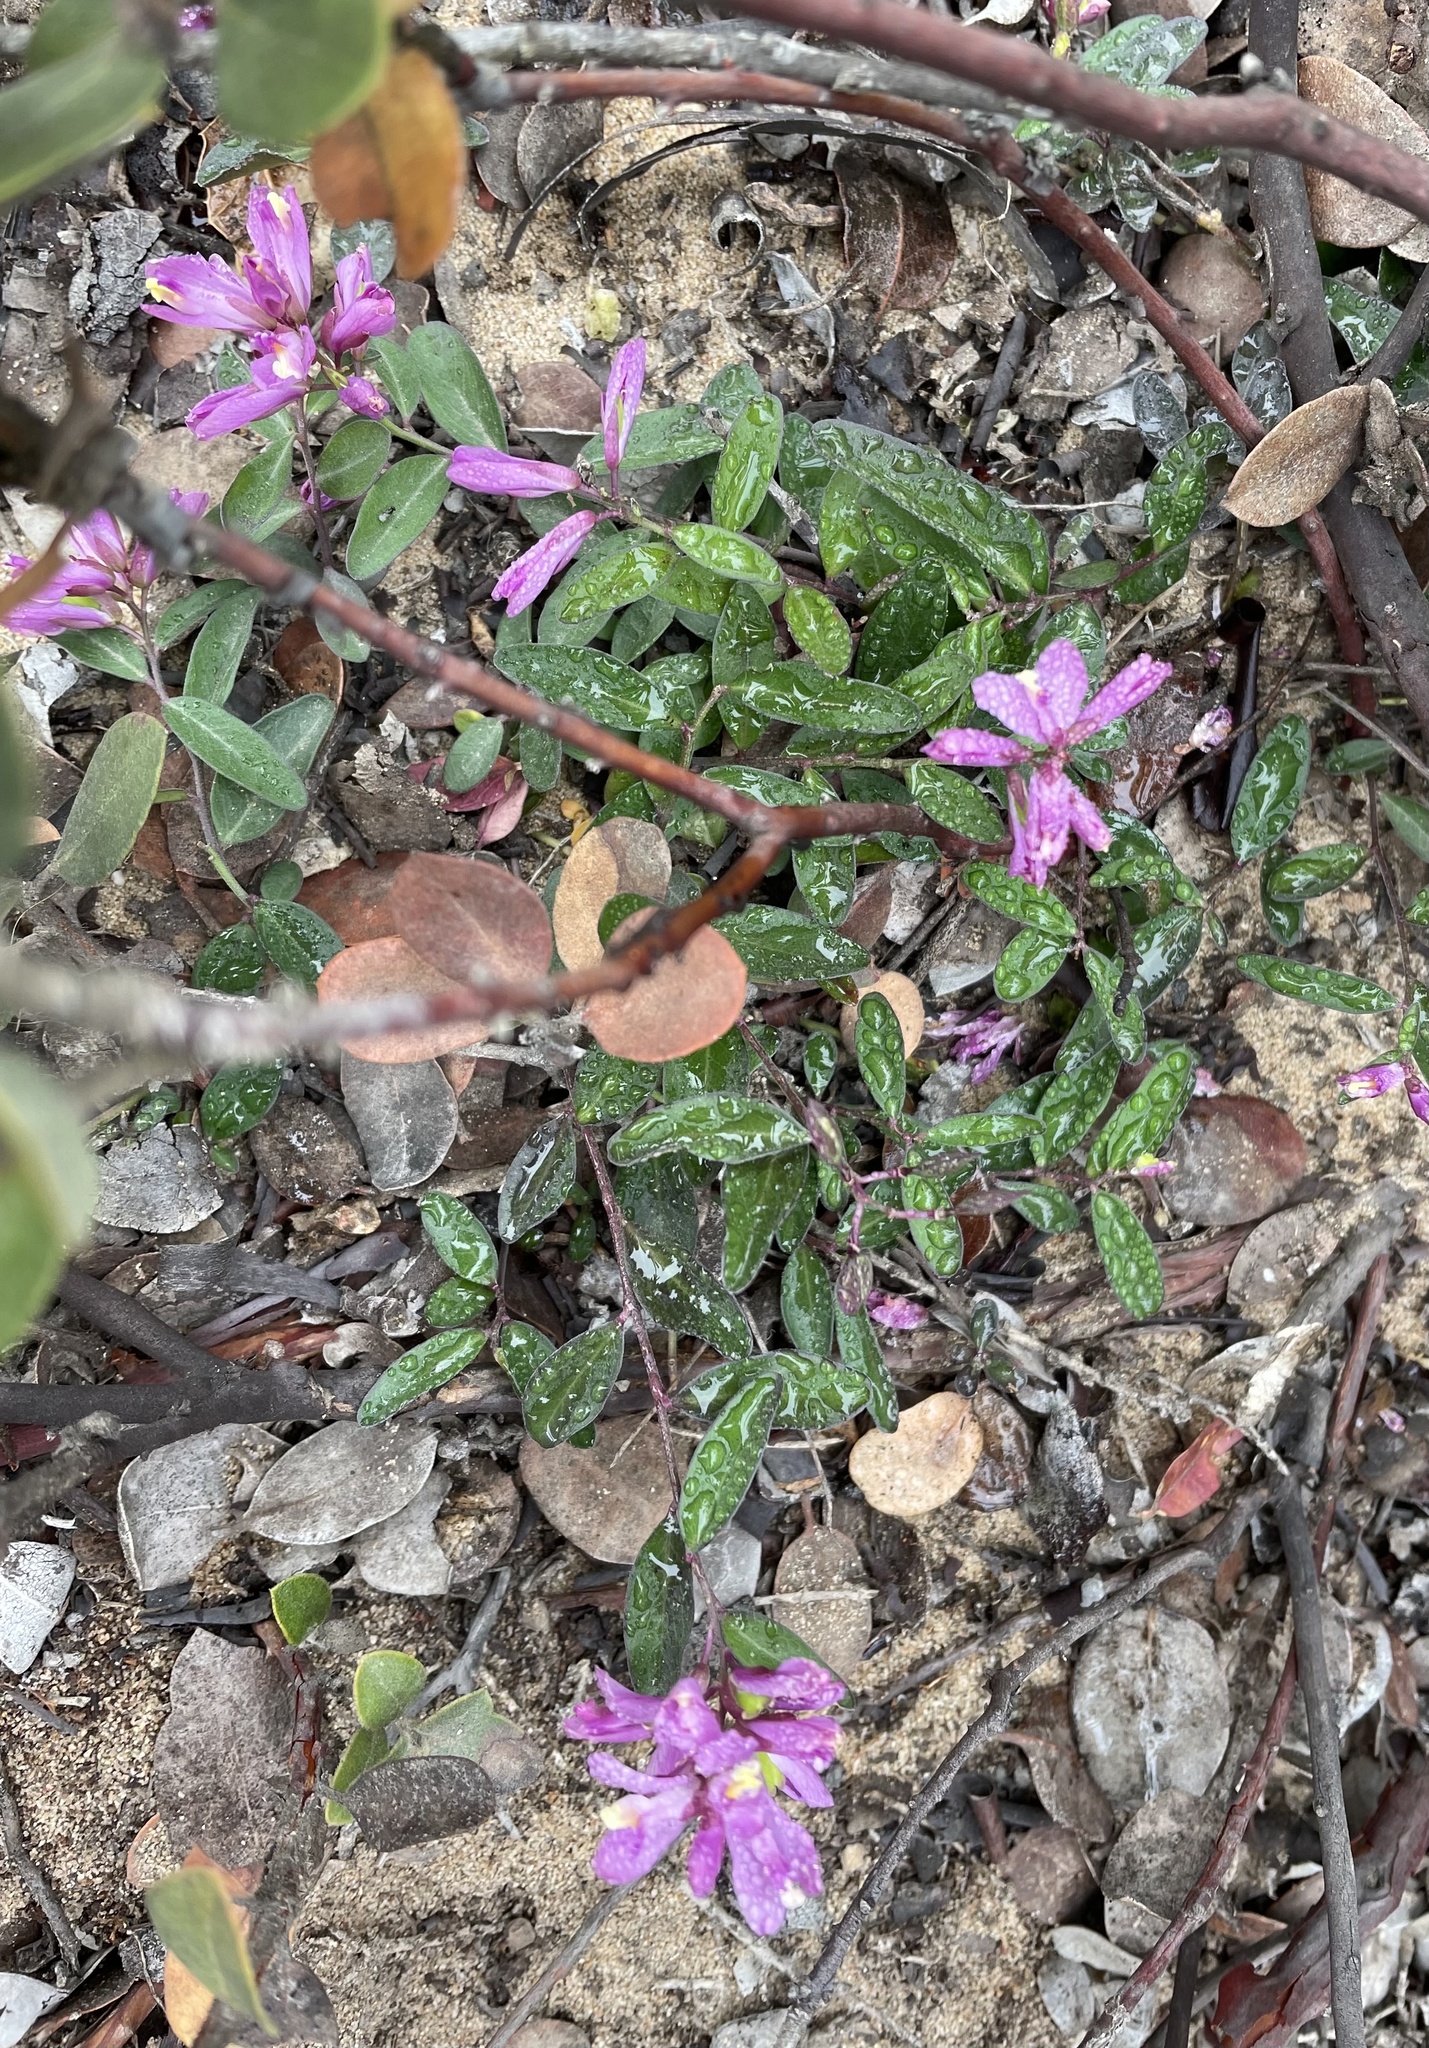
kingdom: Plantae
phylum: Tracheophyta
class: Magnoliopsida
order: Fabales
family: Polygalaceae
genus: Rhinotropis
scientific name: Rhinotropis californica
